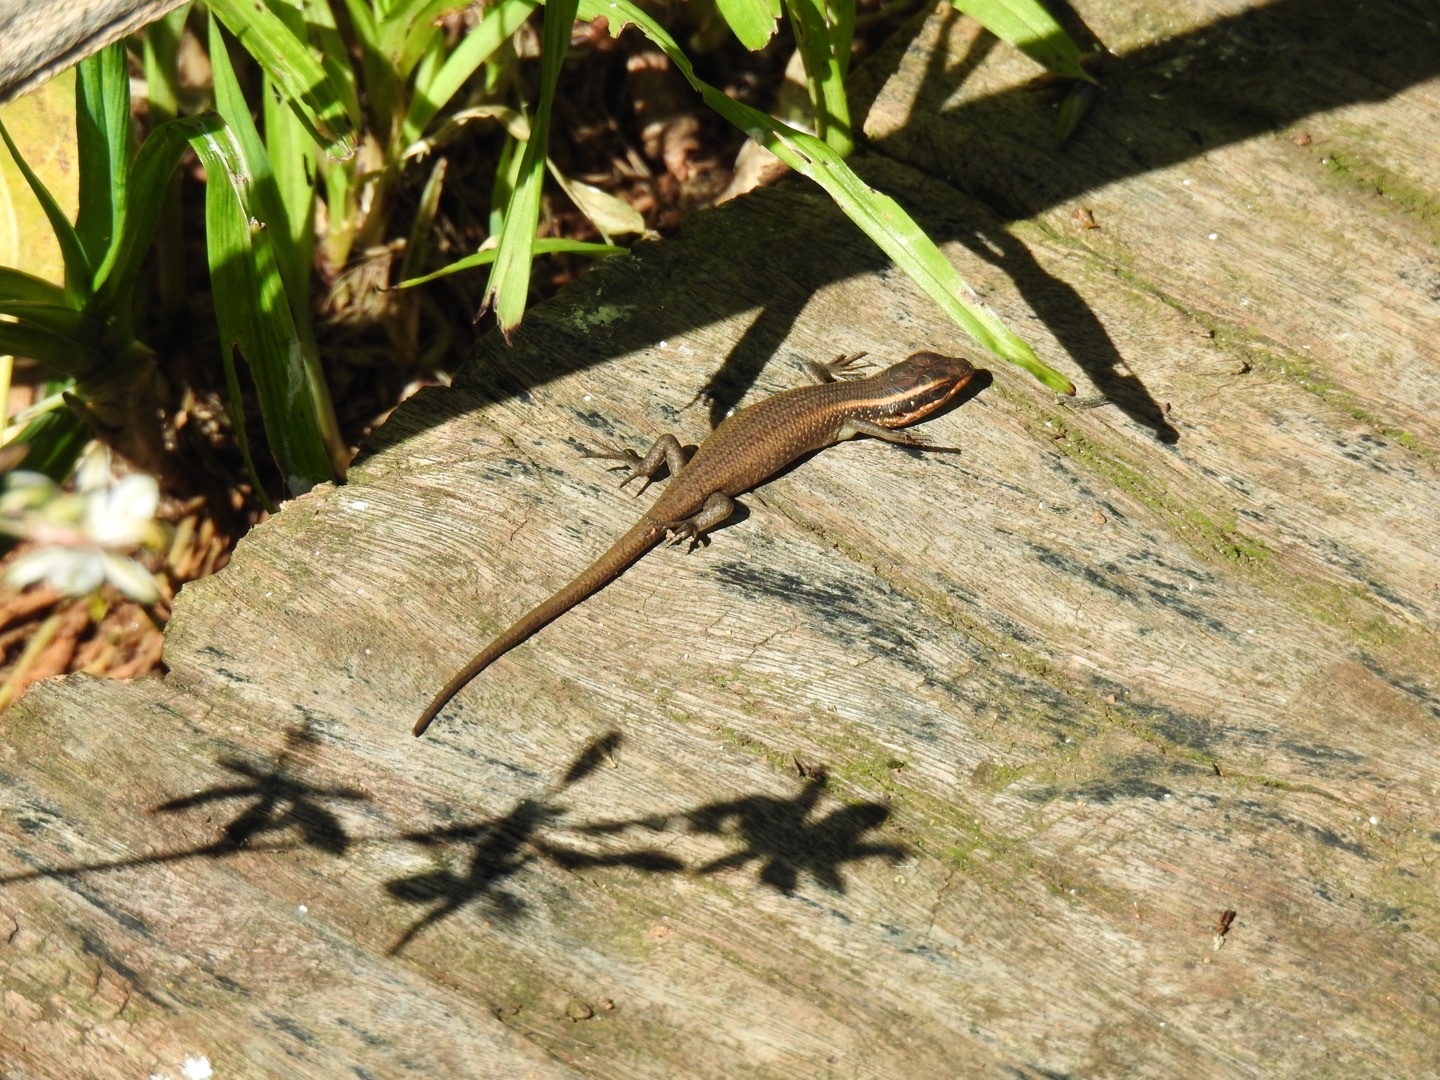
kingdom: Animalia
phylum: Chordata
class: Squamata
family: Scincidae
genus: Trachylepis
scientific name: Trachylepis punctatissima
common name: Montane speckled skink
